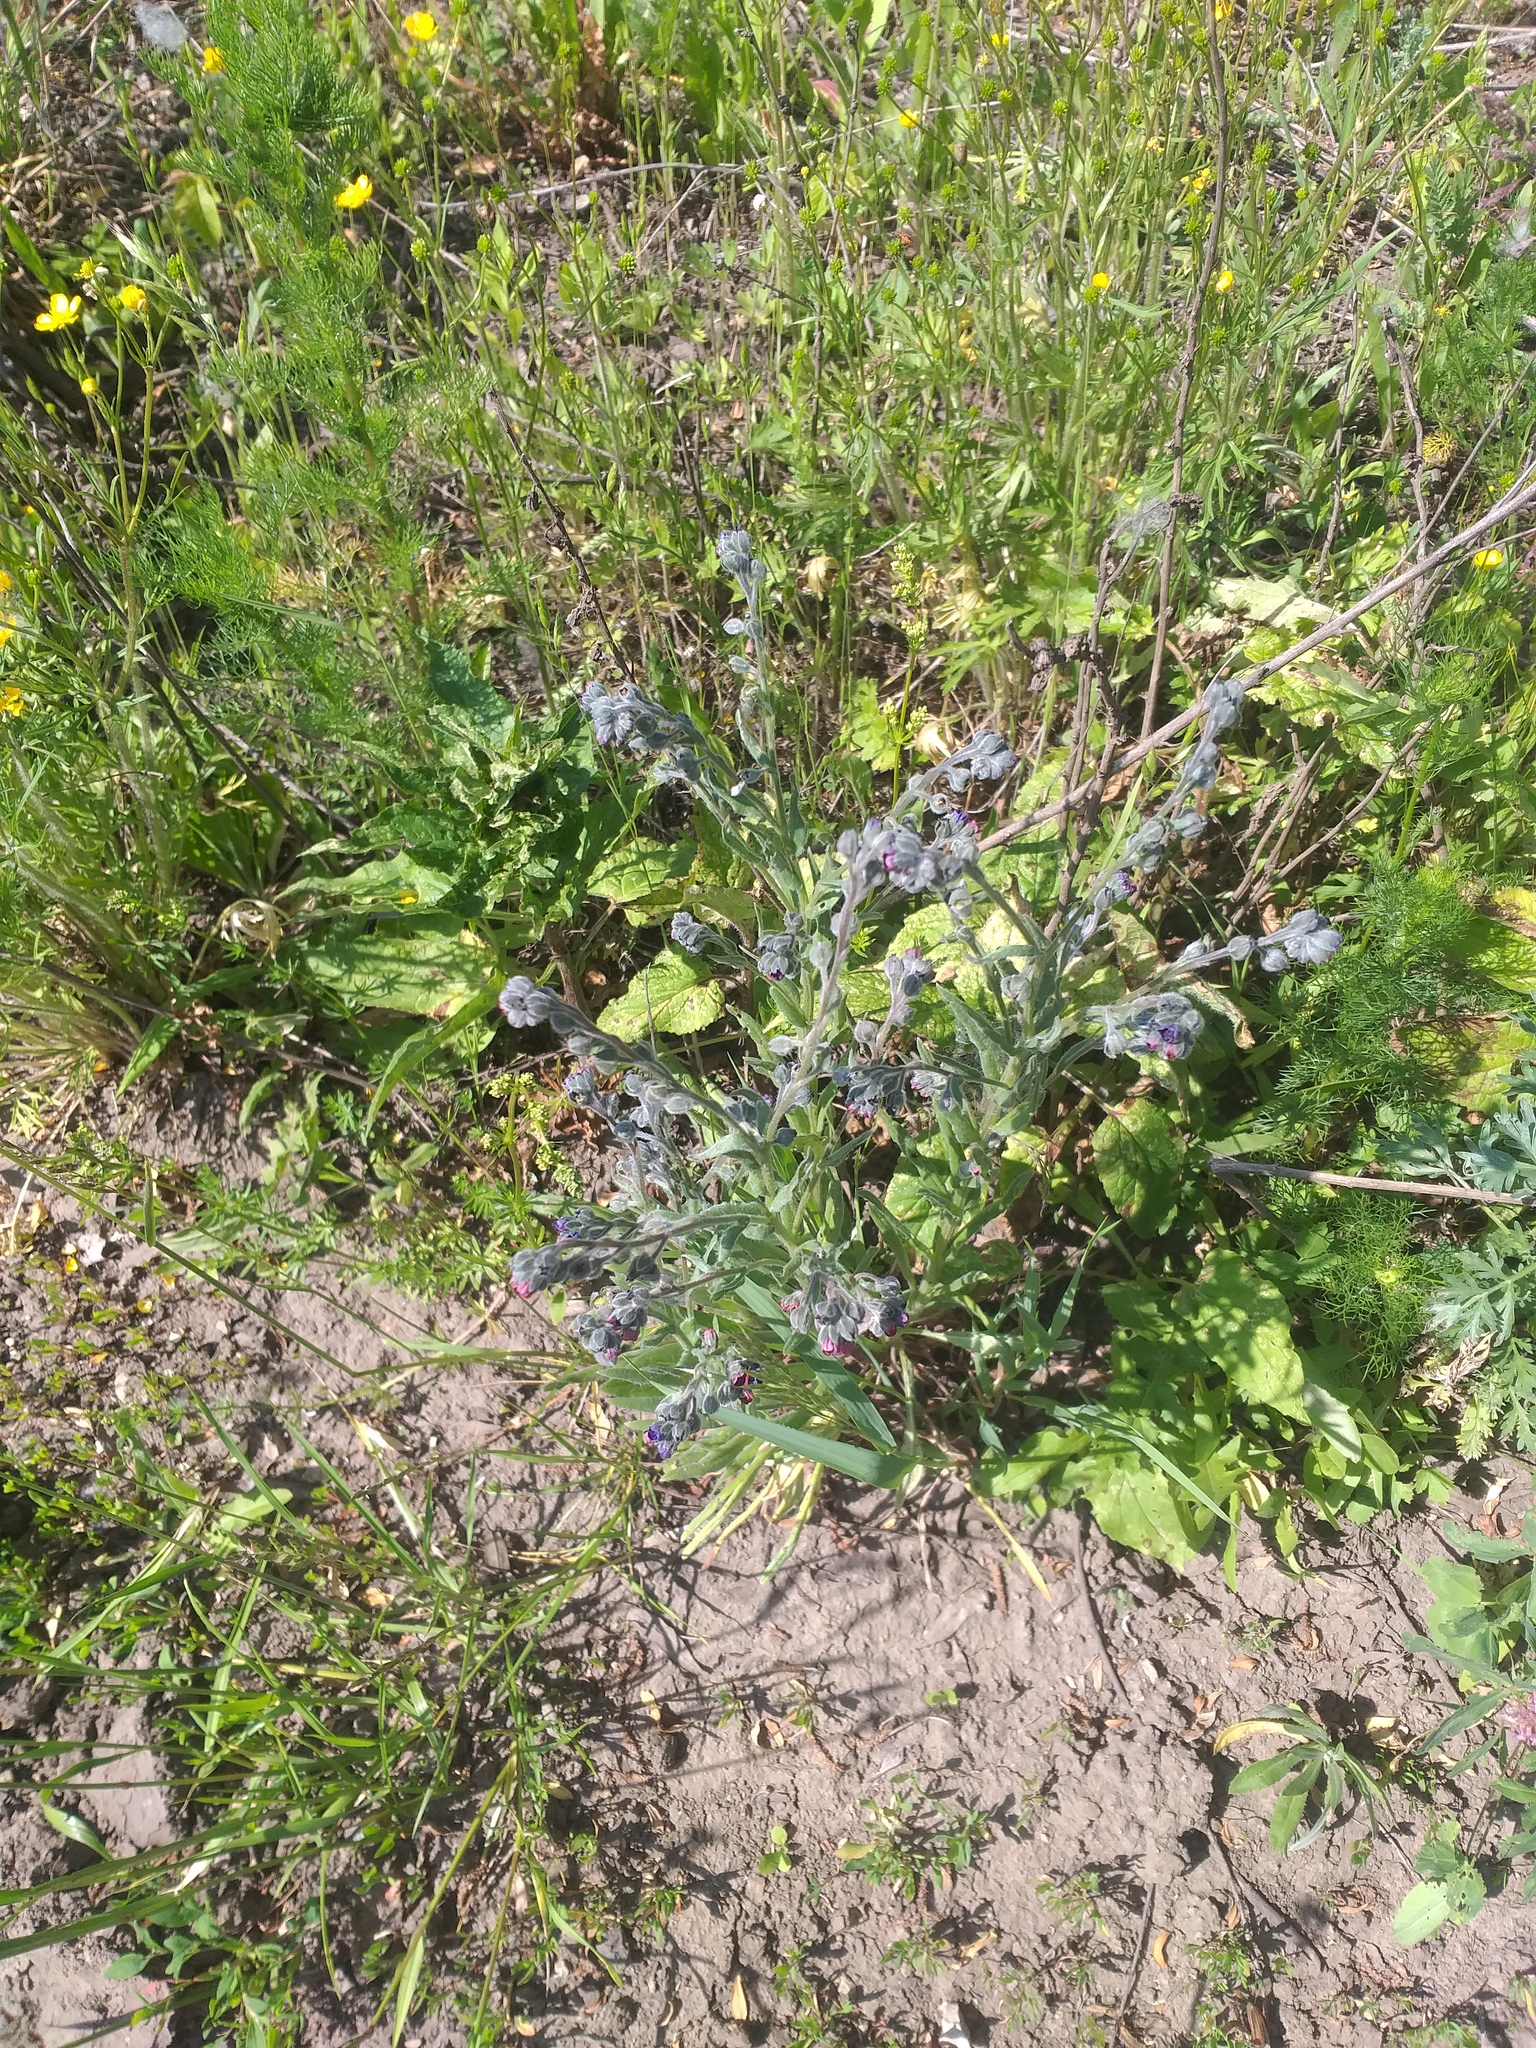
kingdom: Plantae
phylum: Tracheophyta
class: Magnoliopsida
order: Boraginales
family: Boraginaceae
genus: Cynoglossum
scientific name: Cynoglossum officinale
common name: Hound's-tongue
